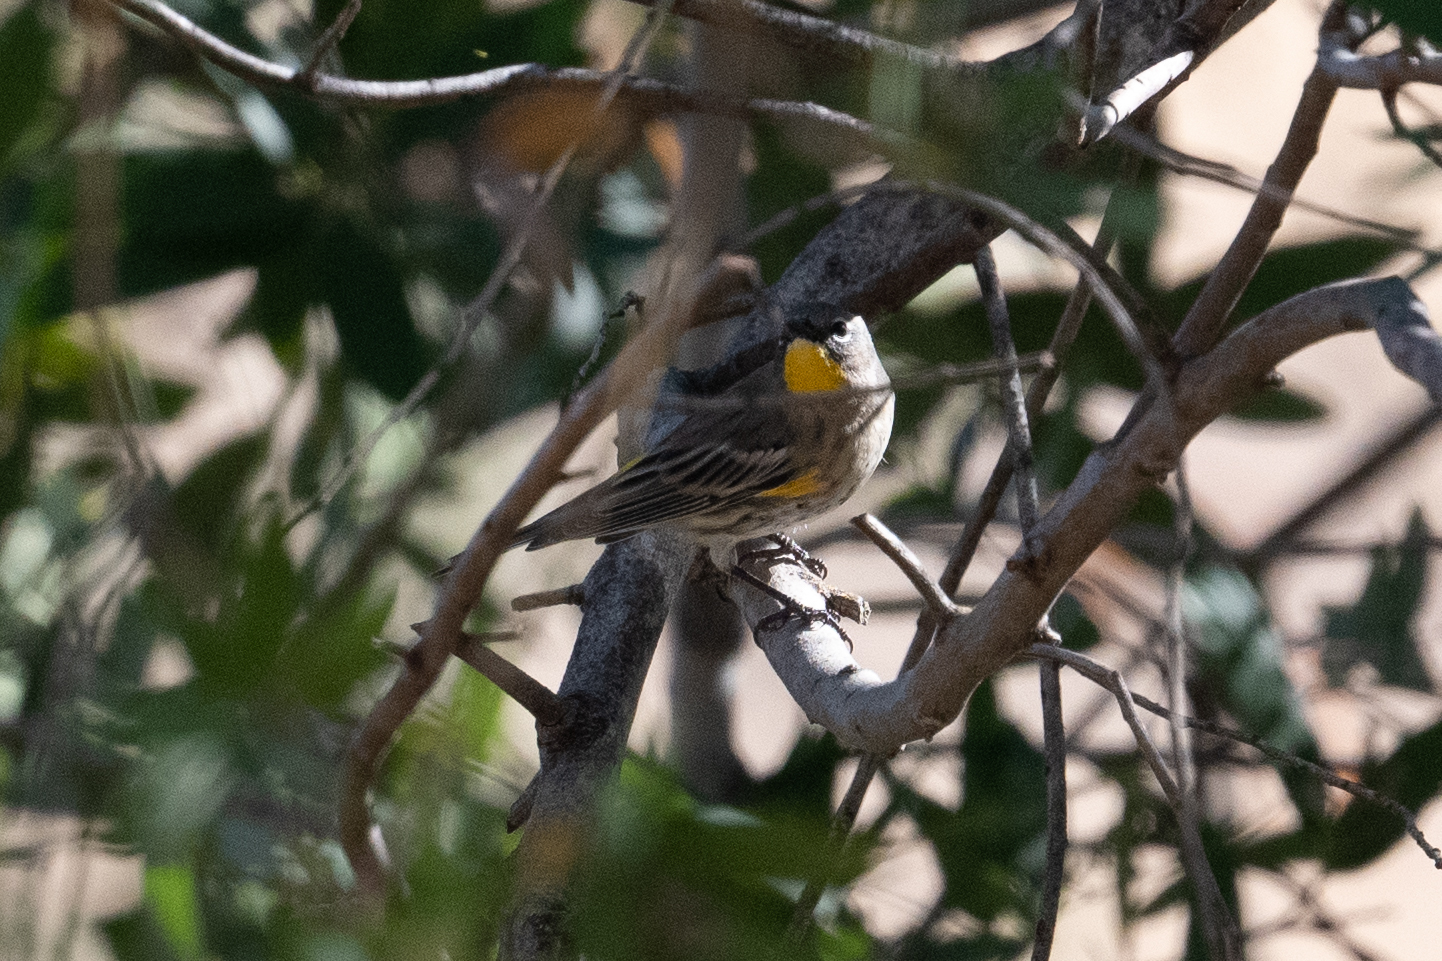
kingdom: Animalia
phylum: Chordata
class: Aves
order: Passeriformes
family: Parulidae
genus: Setophaga
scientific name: Setophaga coronata
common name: Myrtle warbler
